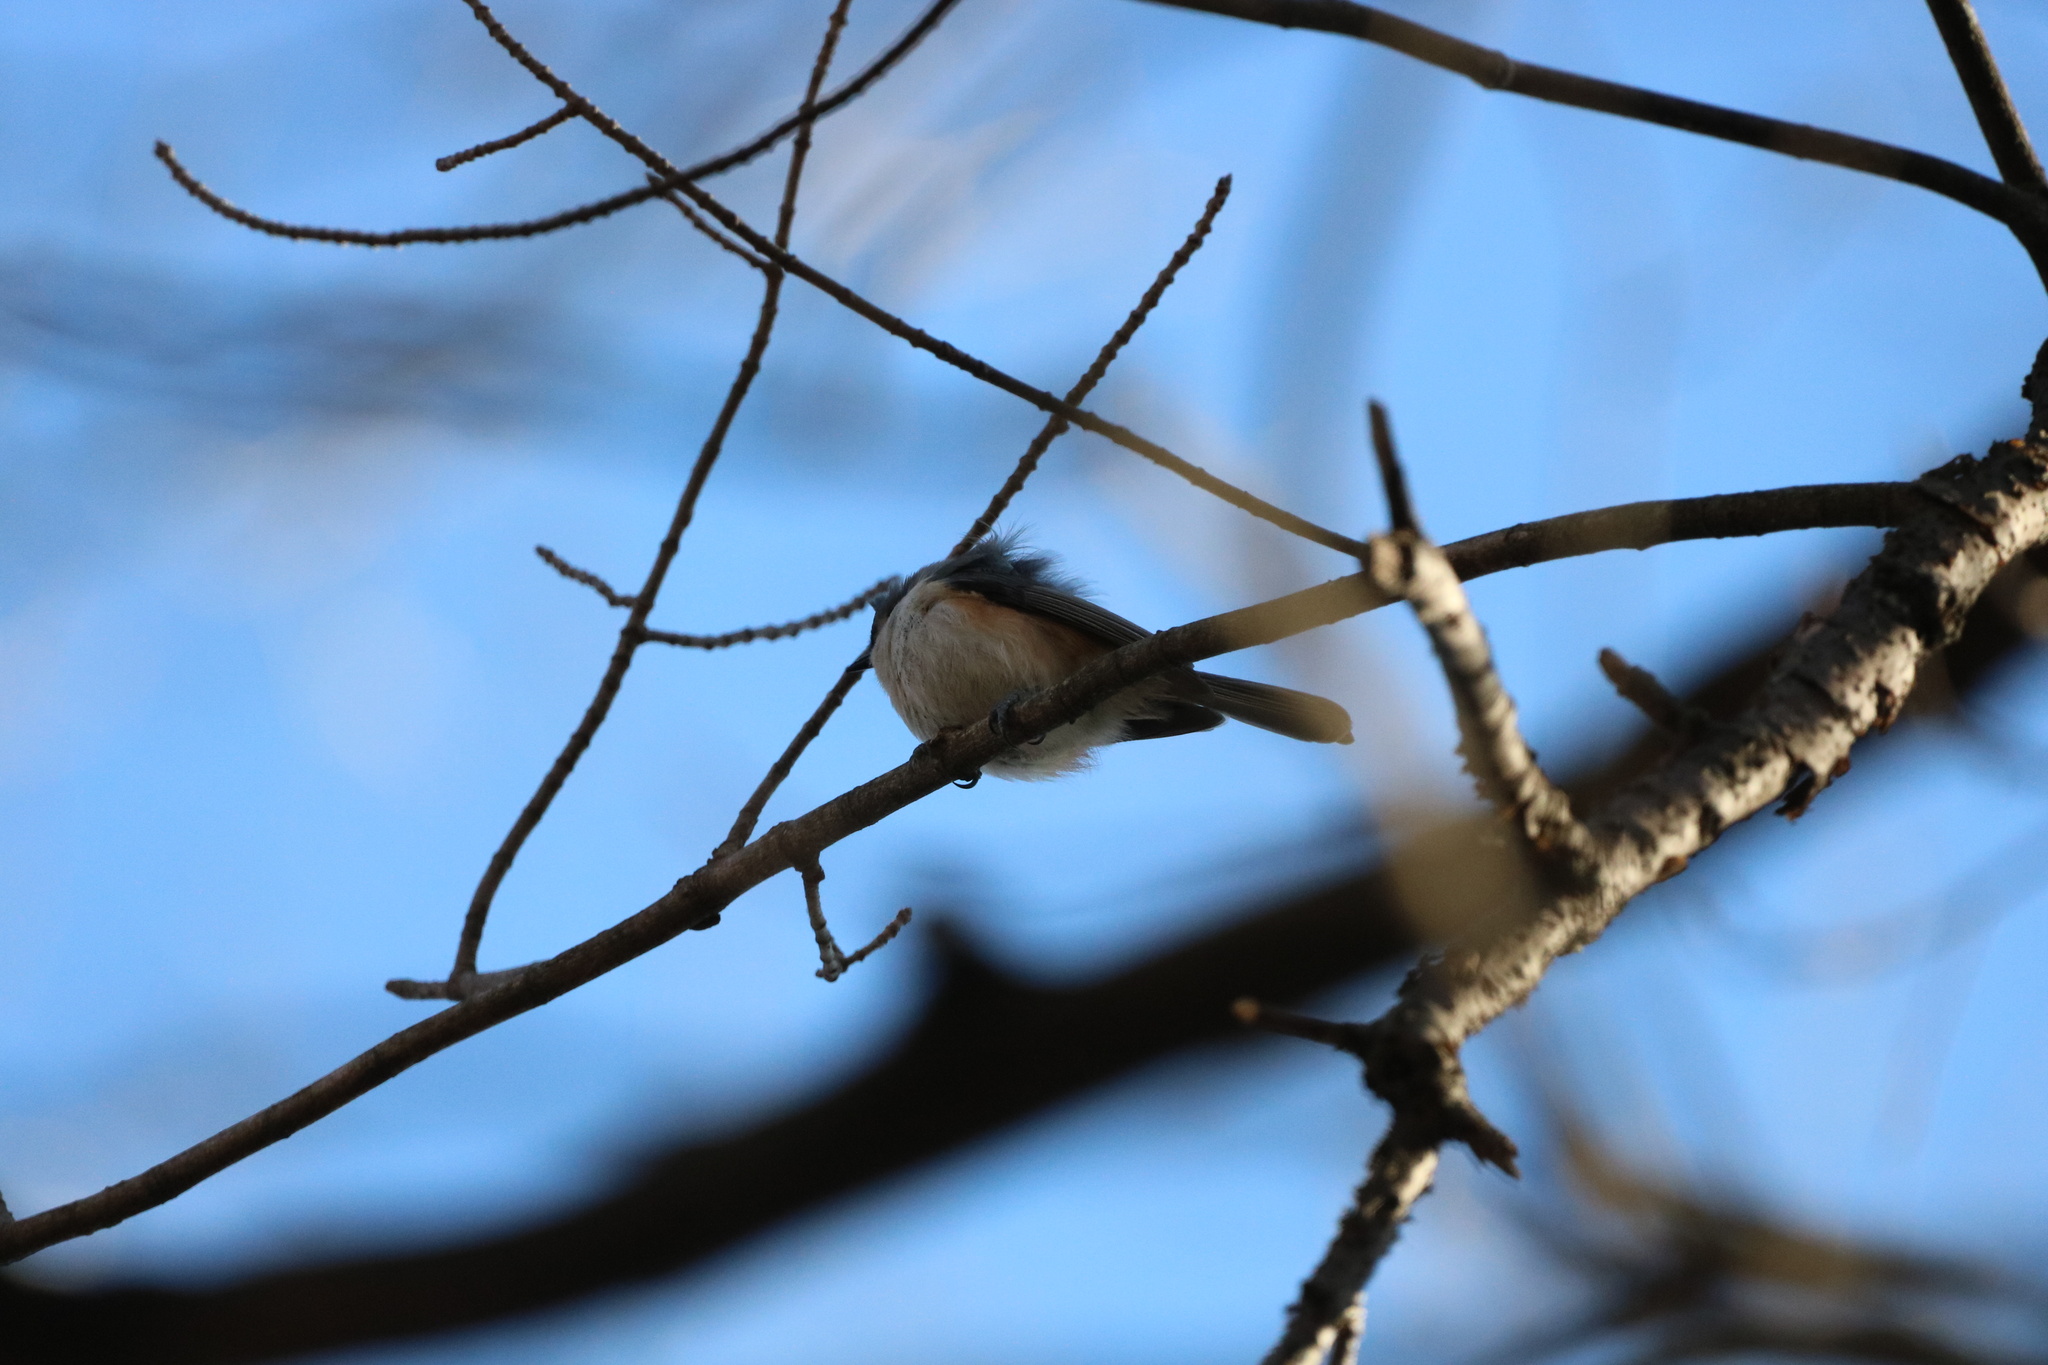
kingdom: Animalia
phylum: Chordata
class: Aves
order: Passeriformes
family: Paridae
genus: Baeolophus
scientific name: Baeolophus bicolor
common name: Tufted titmouse
